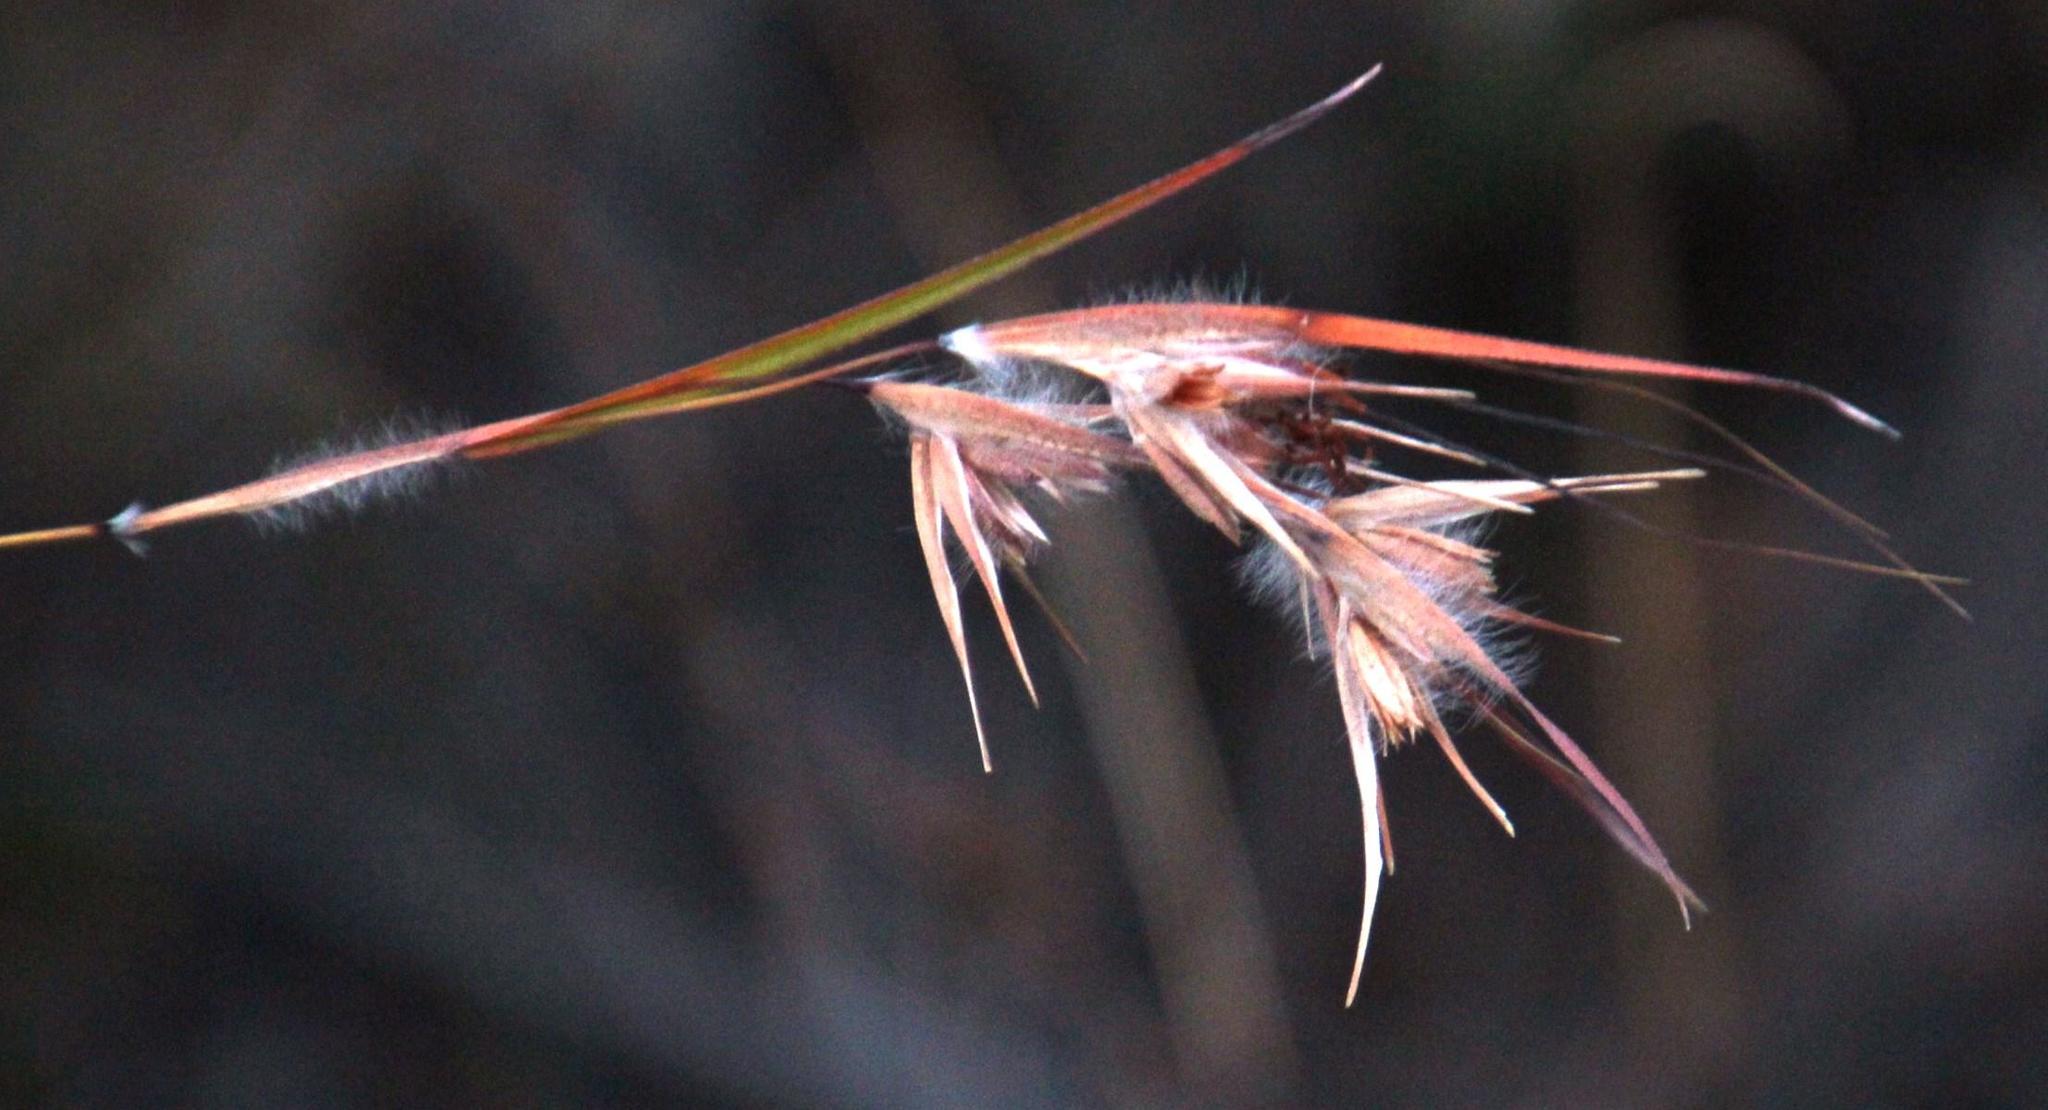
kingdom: Plantae
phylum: Tracheophyta
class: Liliopsida
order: Poales
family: Poaceae
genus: Themeda
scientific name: Themeda triandra
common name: Kangaroo grass
